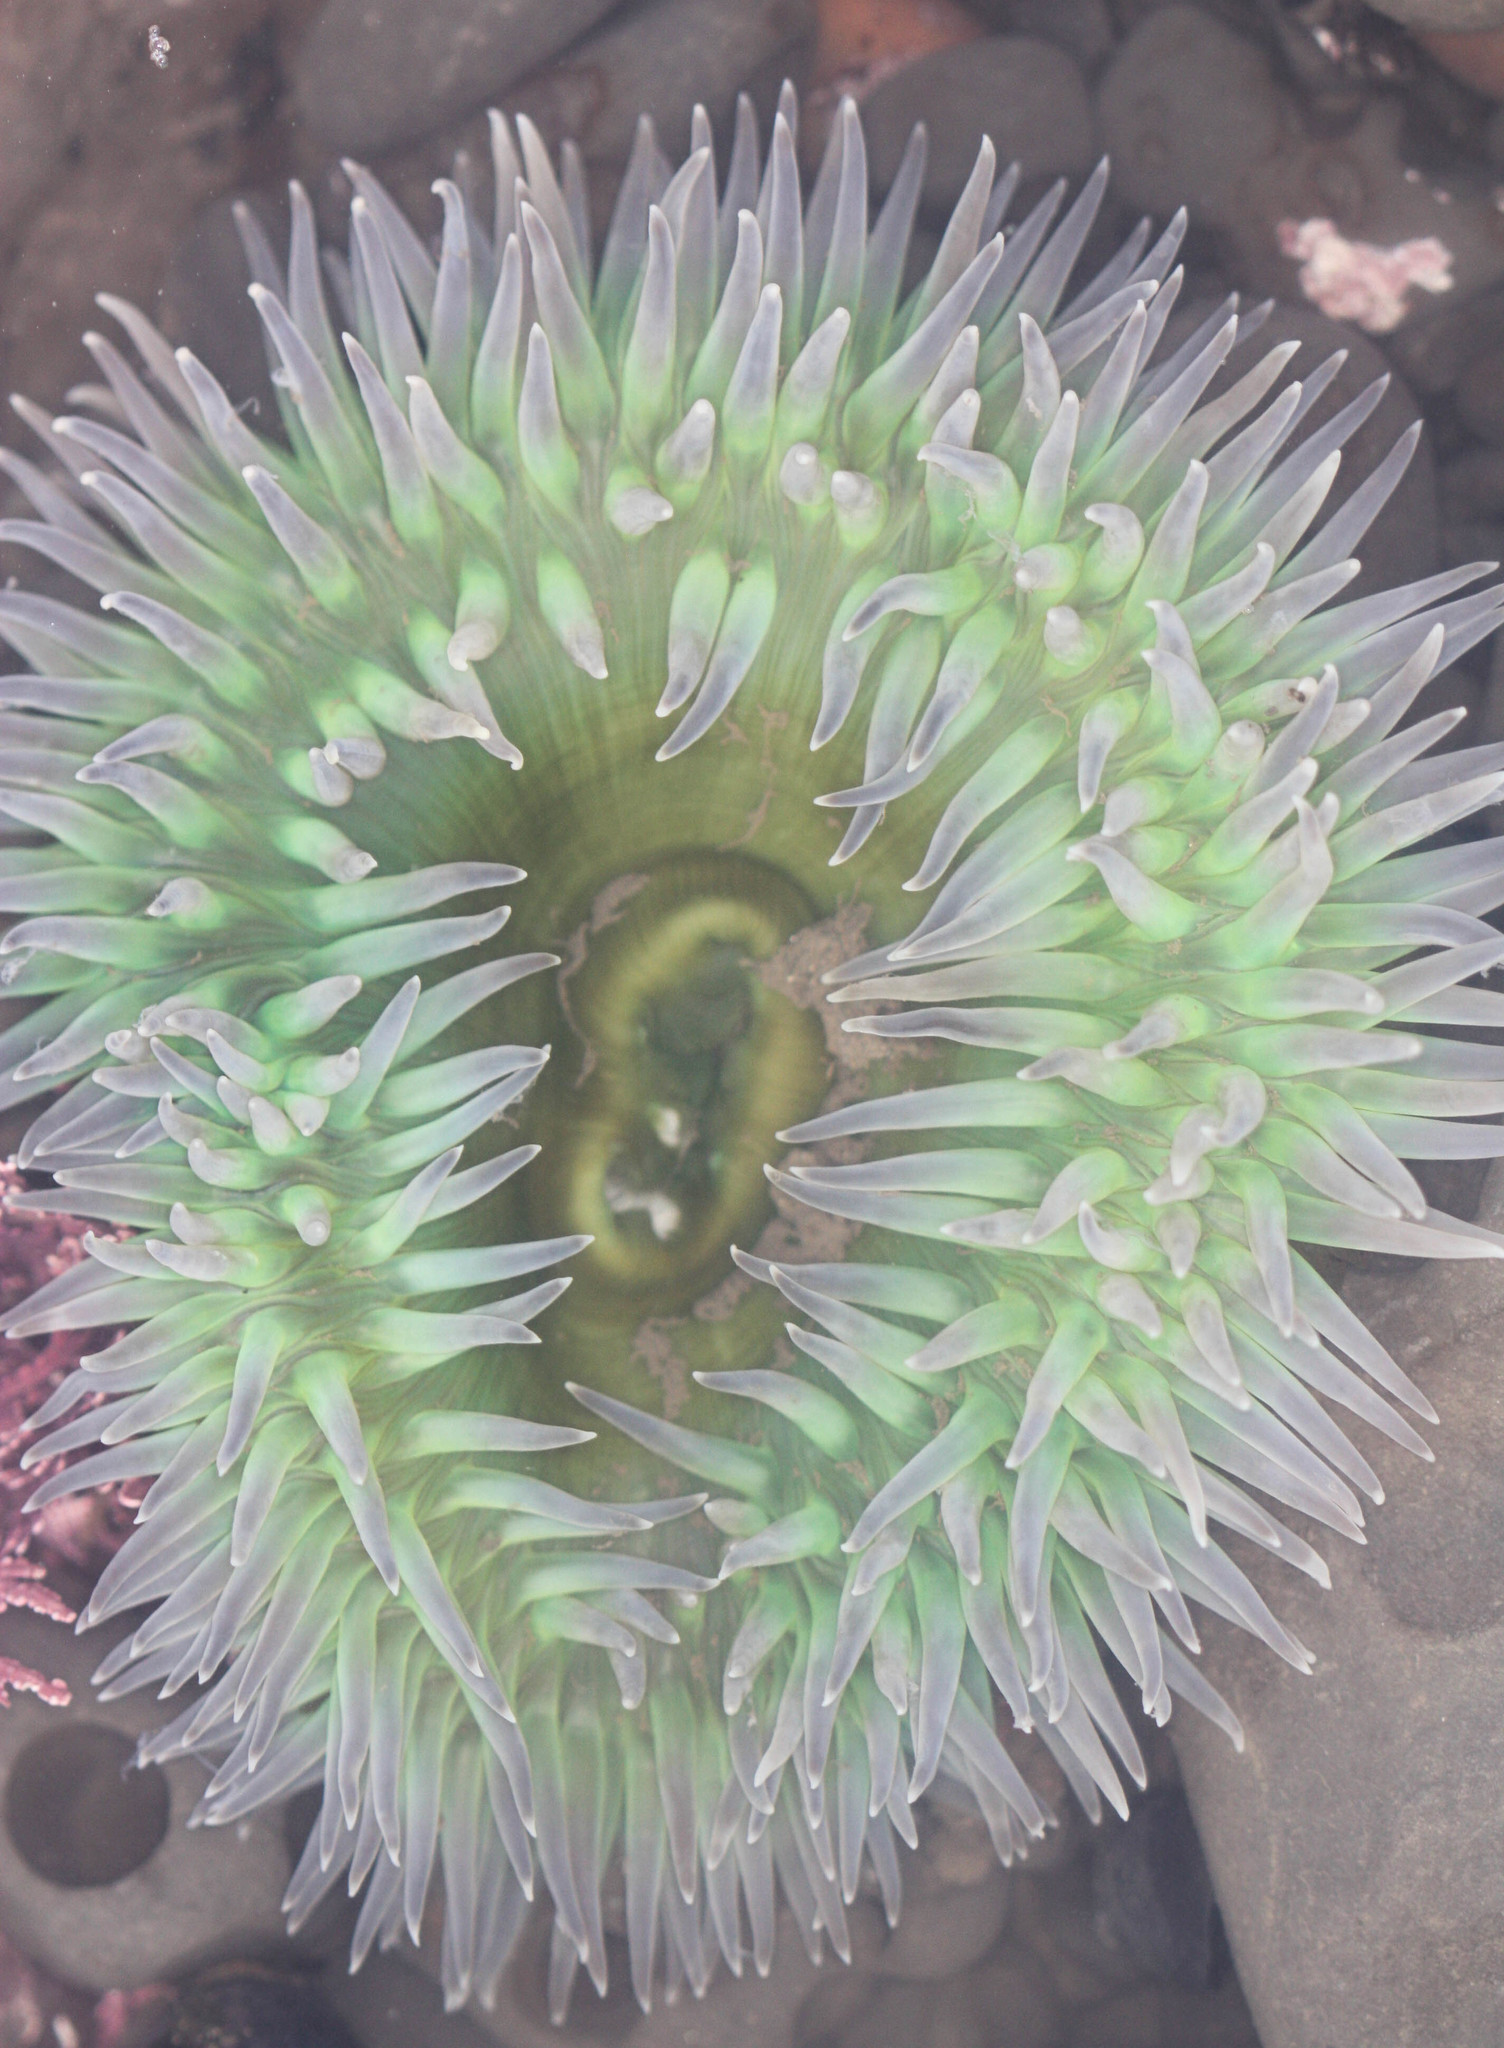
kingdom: Animalia
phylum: Cnidaria
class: Anthozoa
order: Actiniaria
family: Actiniidae
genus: Anthopleura
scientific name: Anthopleura xanthogrammica
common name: Giant green anemone
